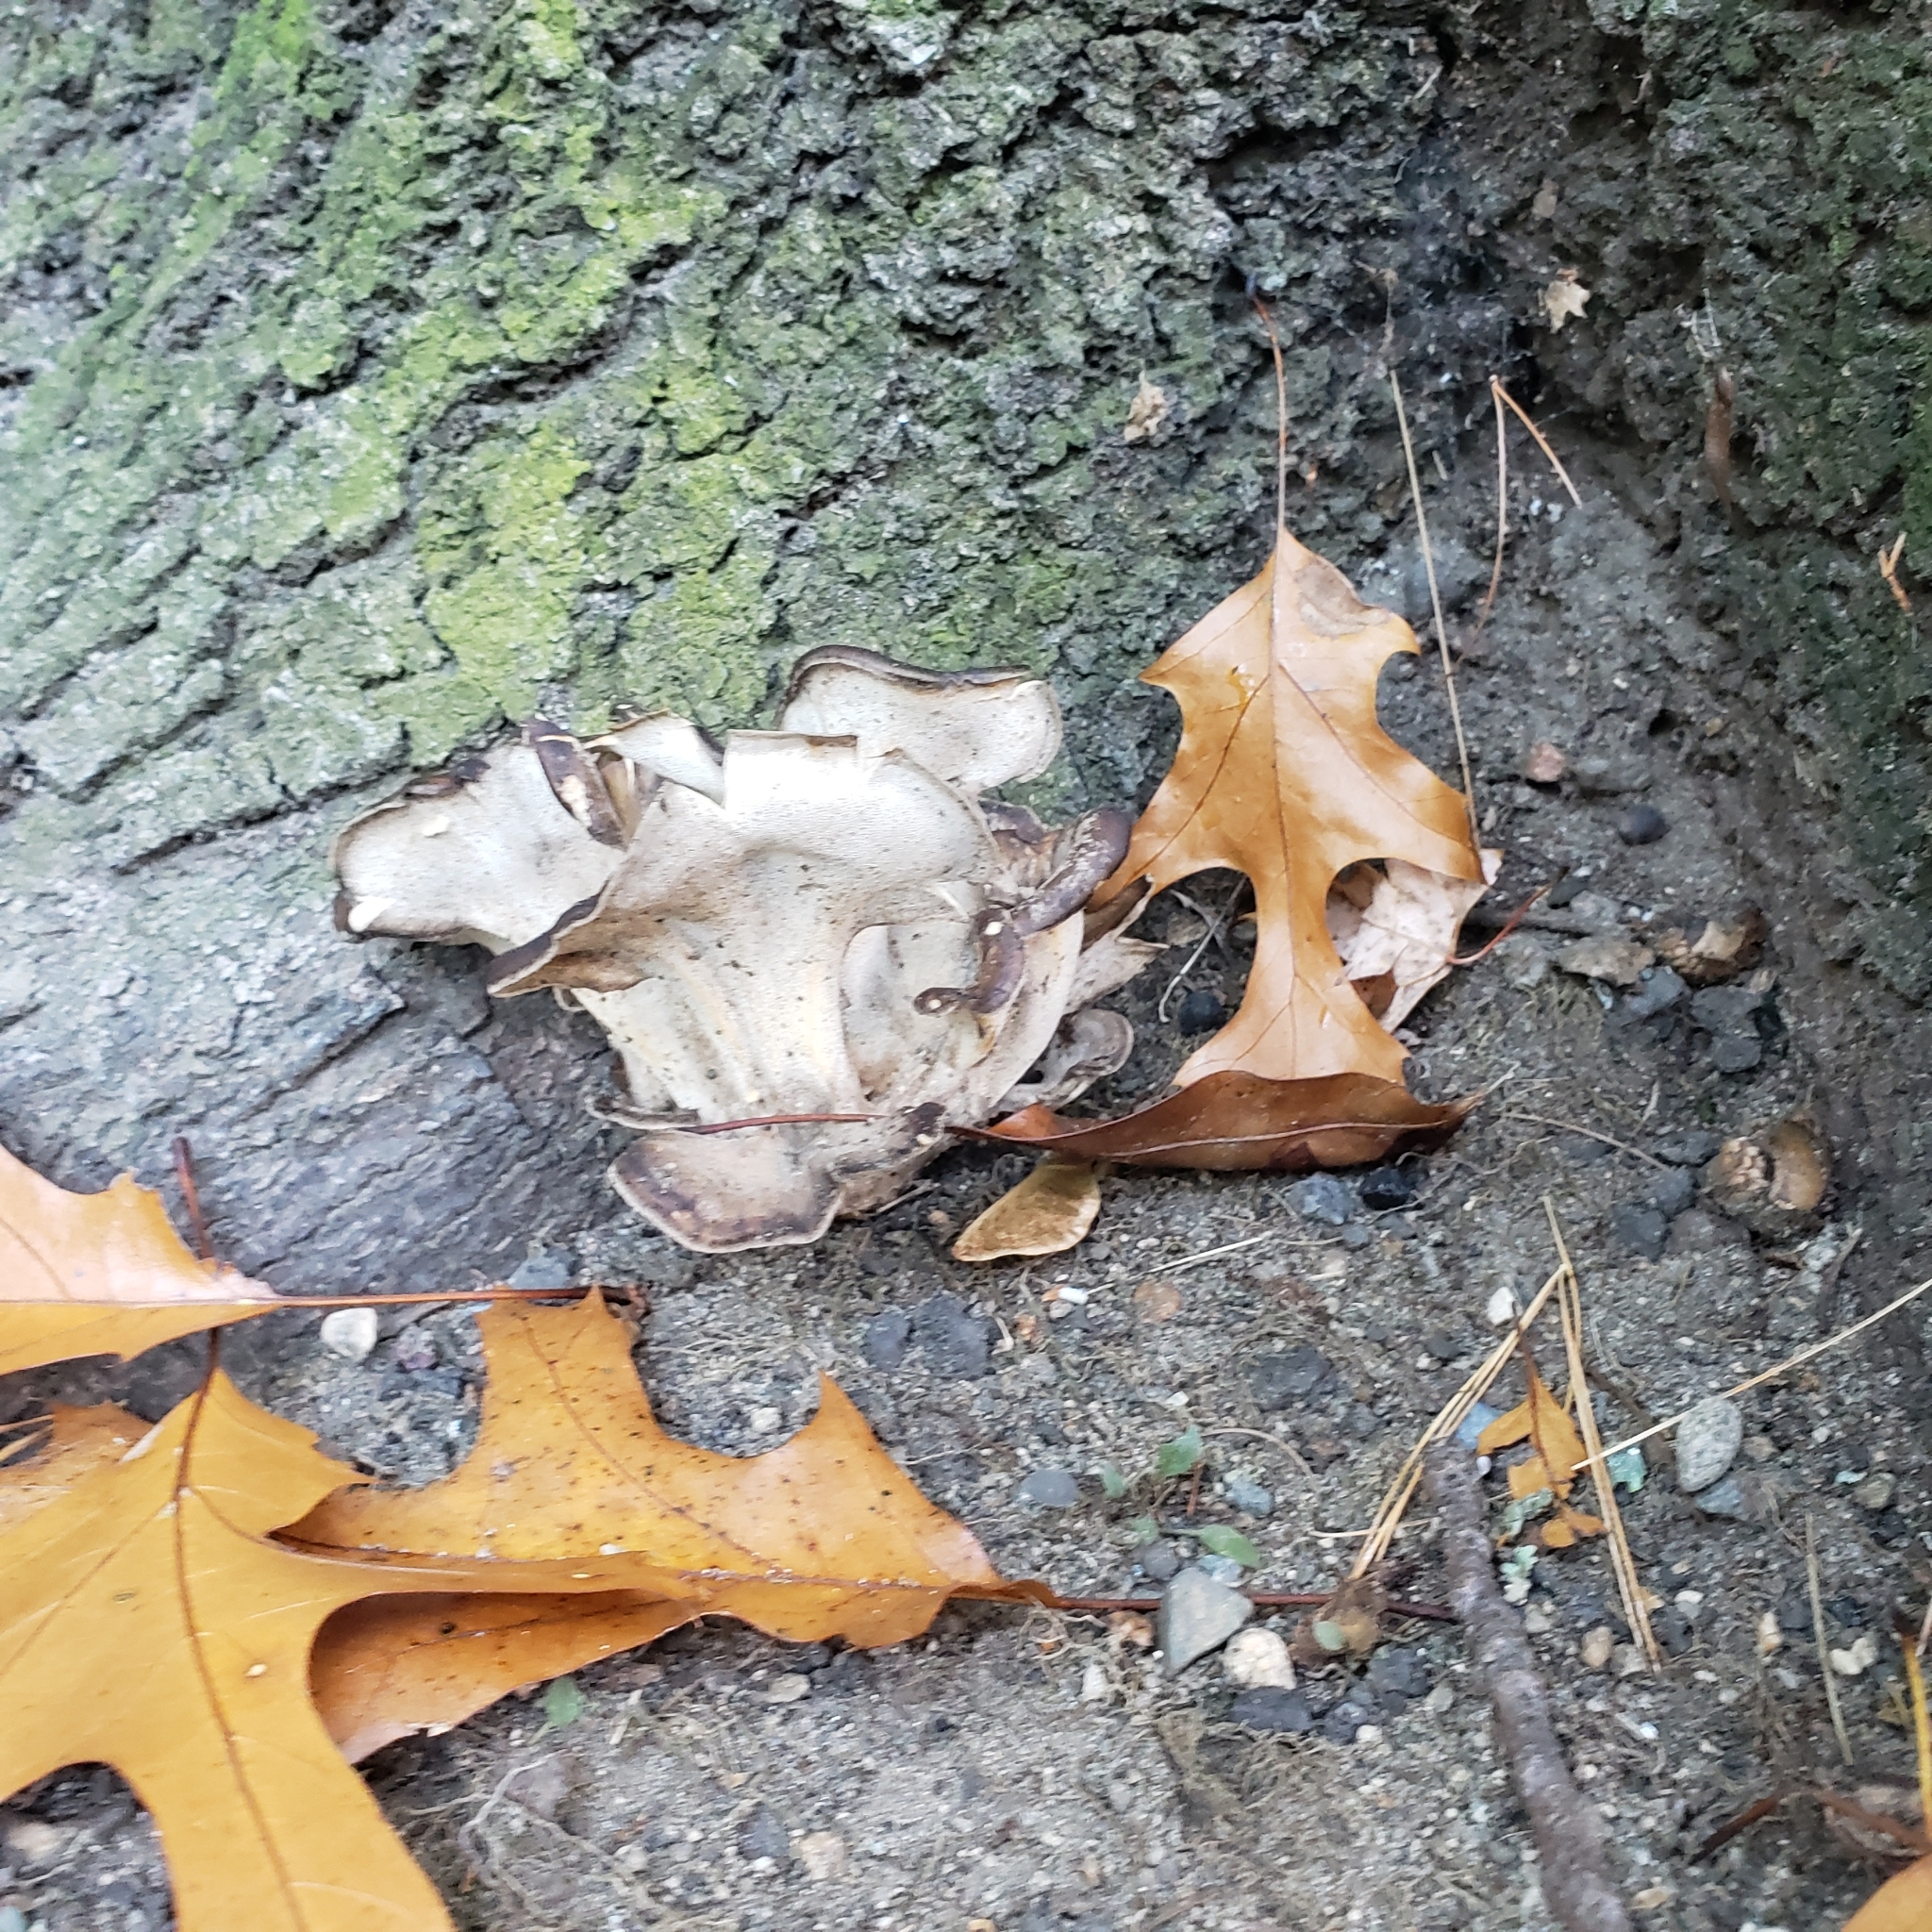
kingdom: Fungi
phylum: Basidiomycota
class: Agaricomycetes
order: Polyporales
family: Grifolaceae
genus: Grifola
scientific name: Grifola frondosa
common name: Hen of the woods
